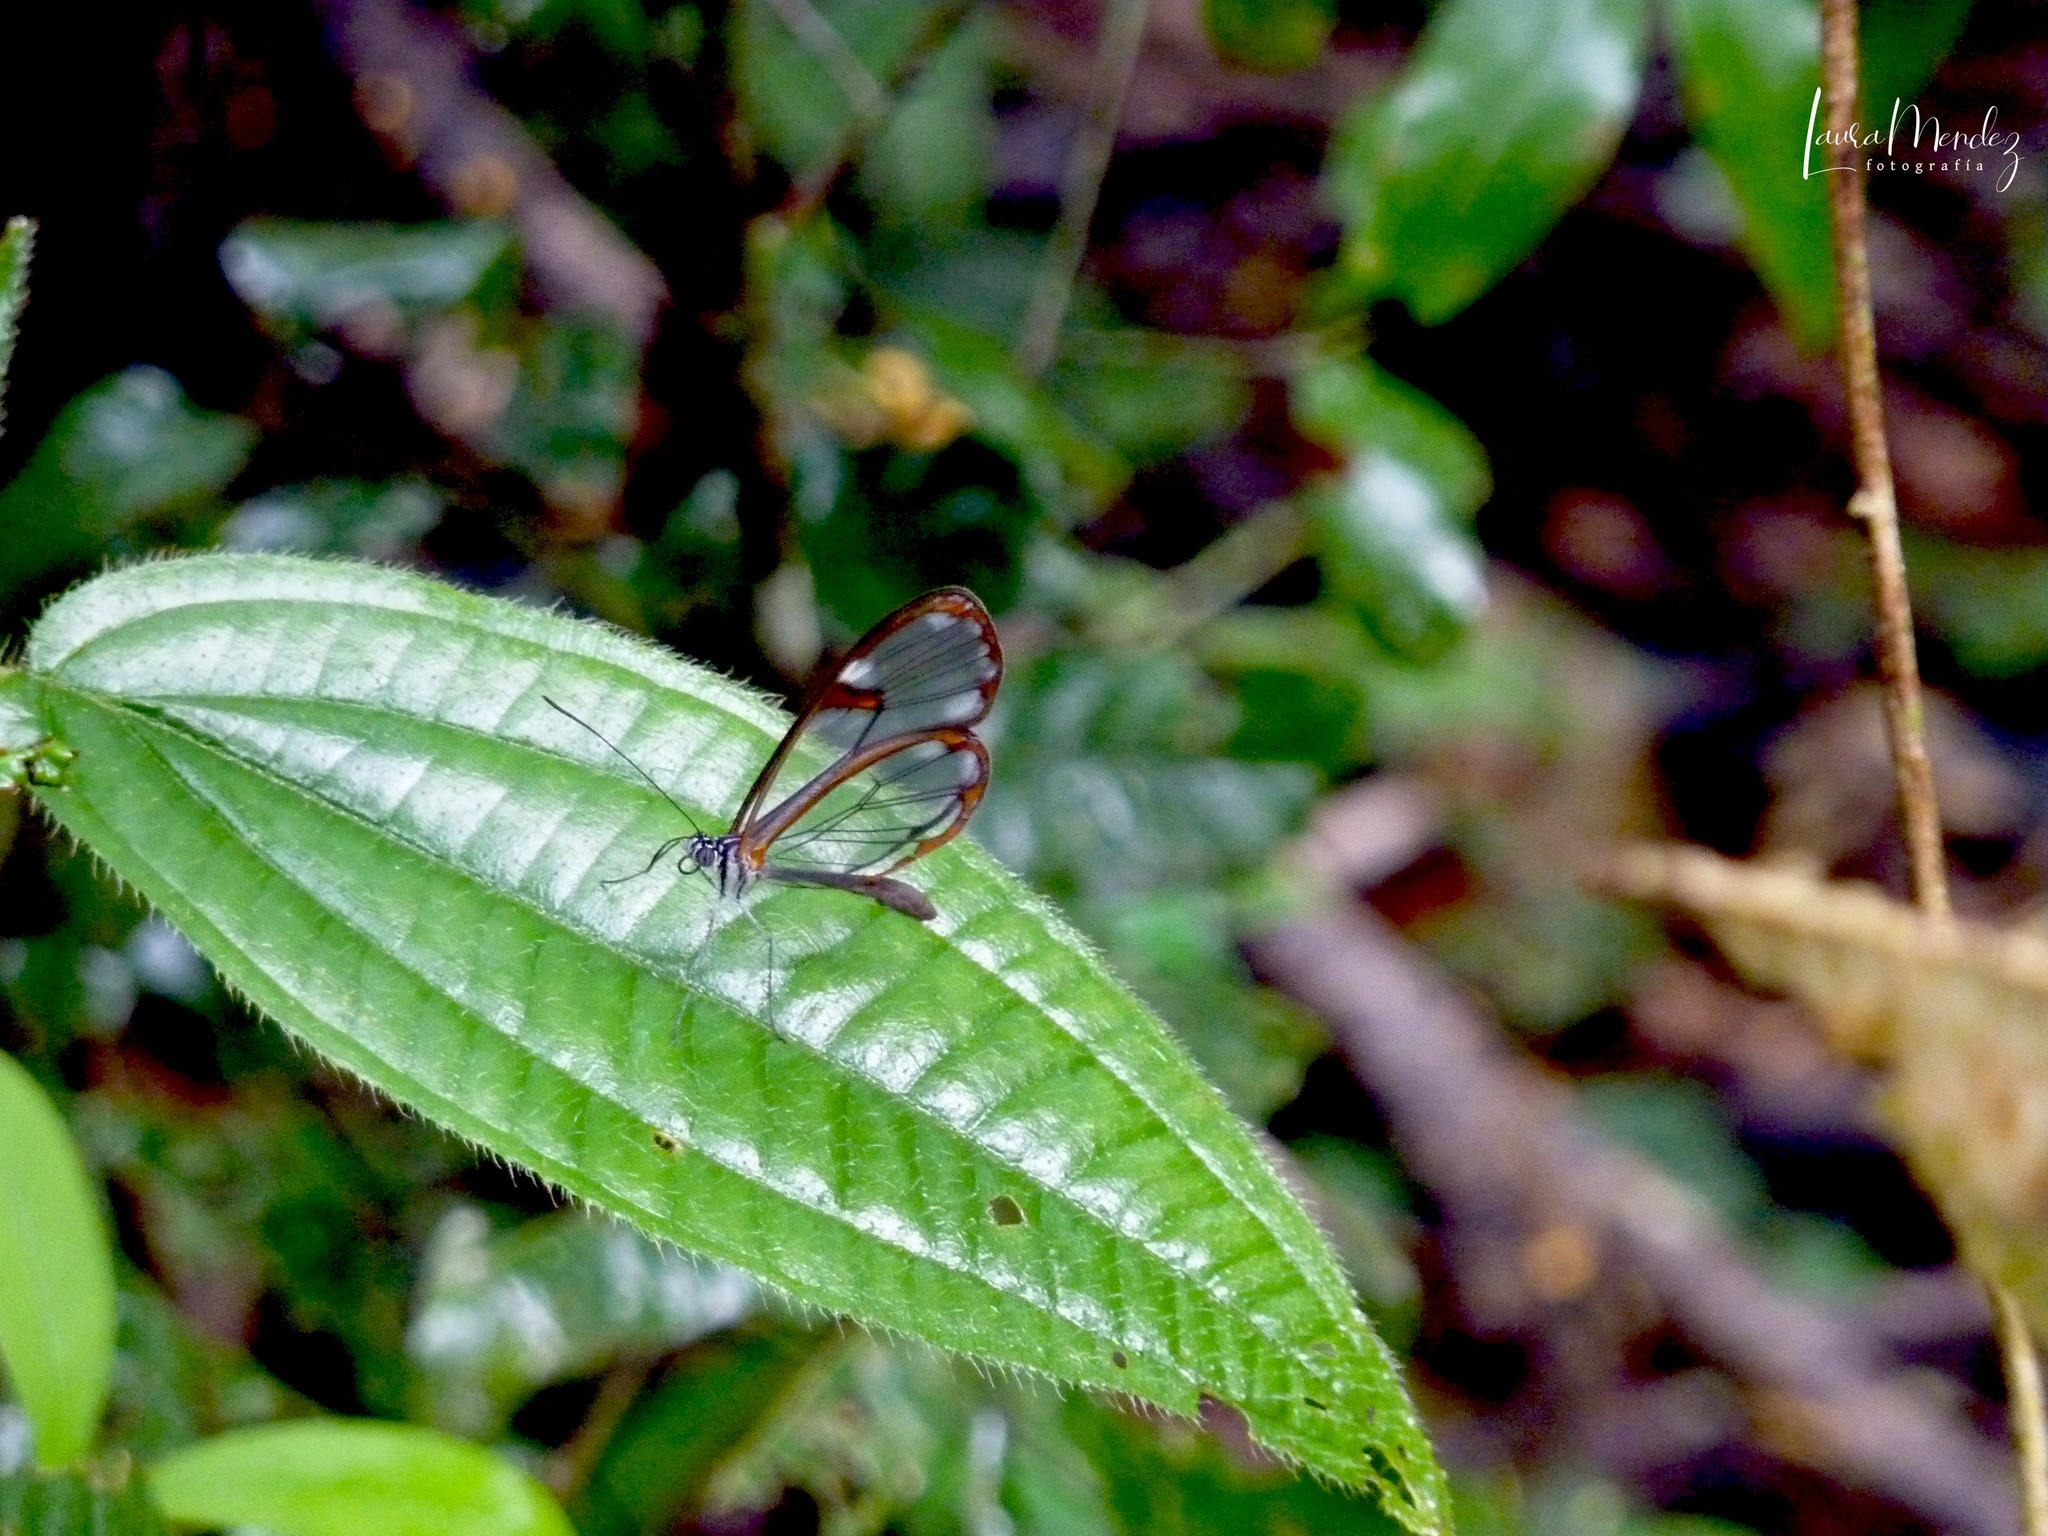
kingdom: Animalia
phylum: Arthropoda
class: Insecta
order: Lepidoptera
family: Nymphalidae
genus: Pseudoscada
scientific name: Pseudoscada erruca
